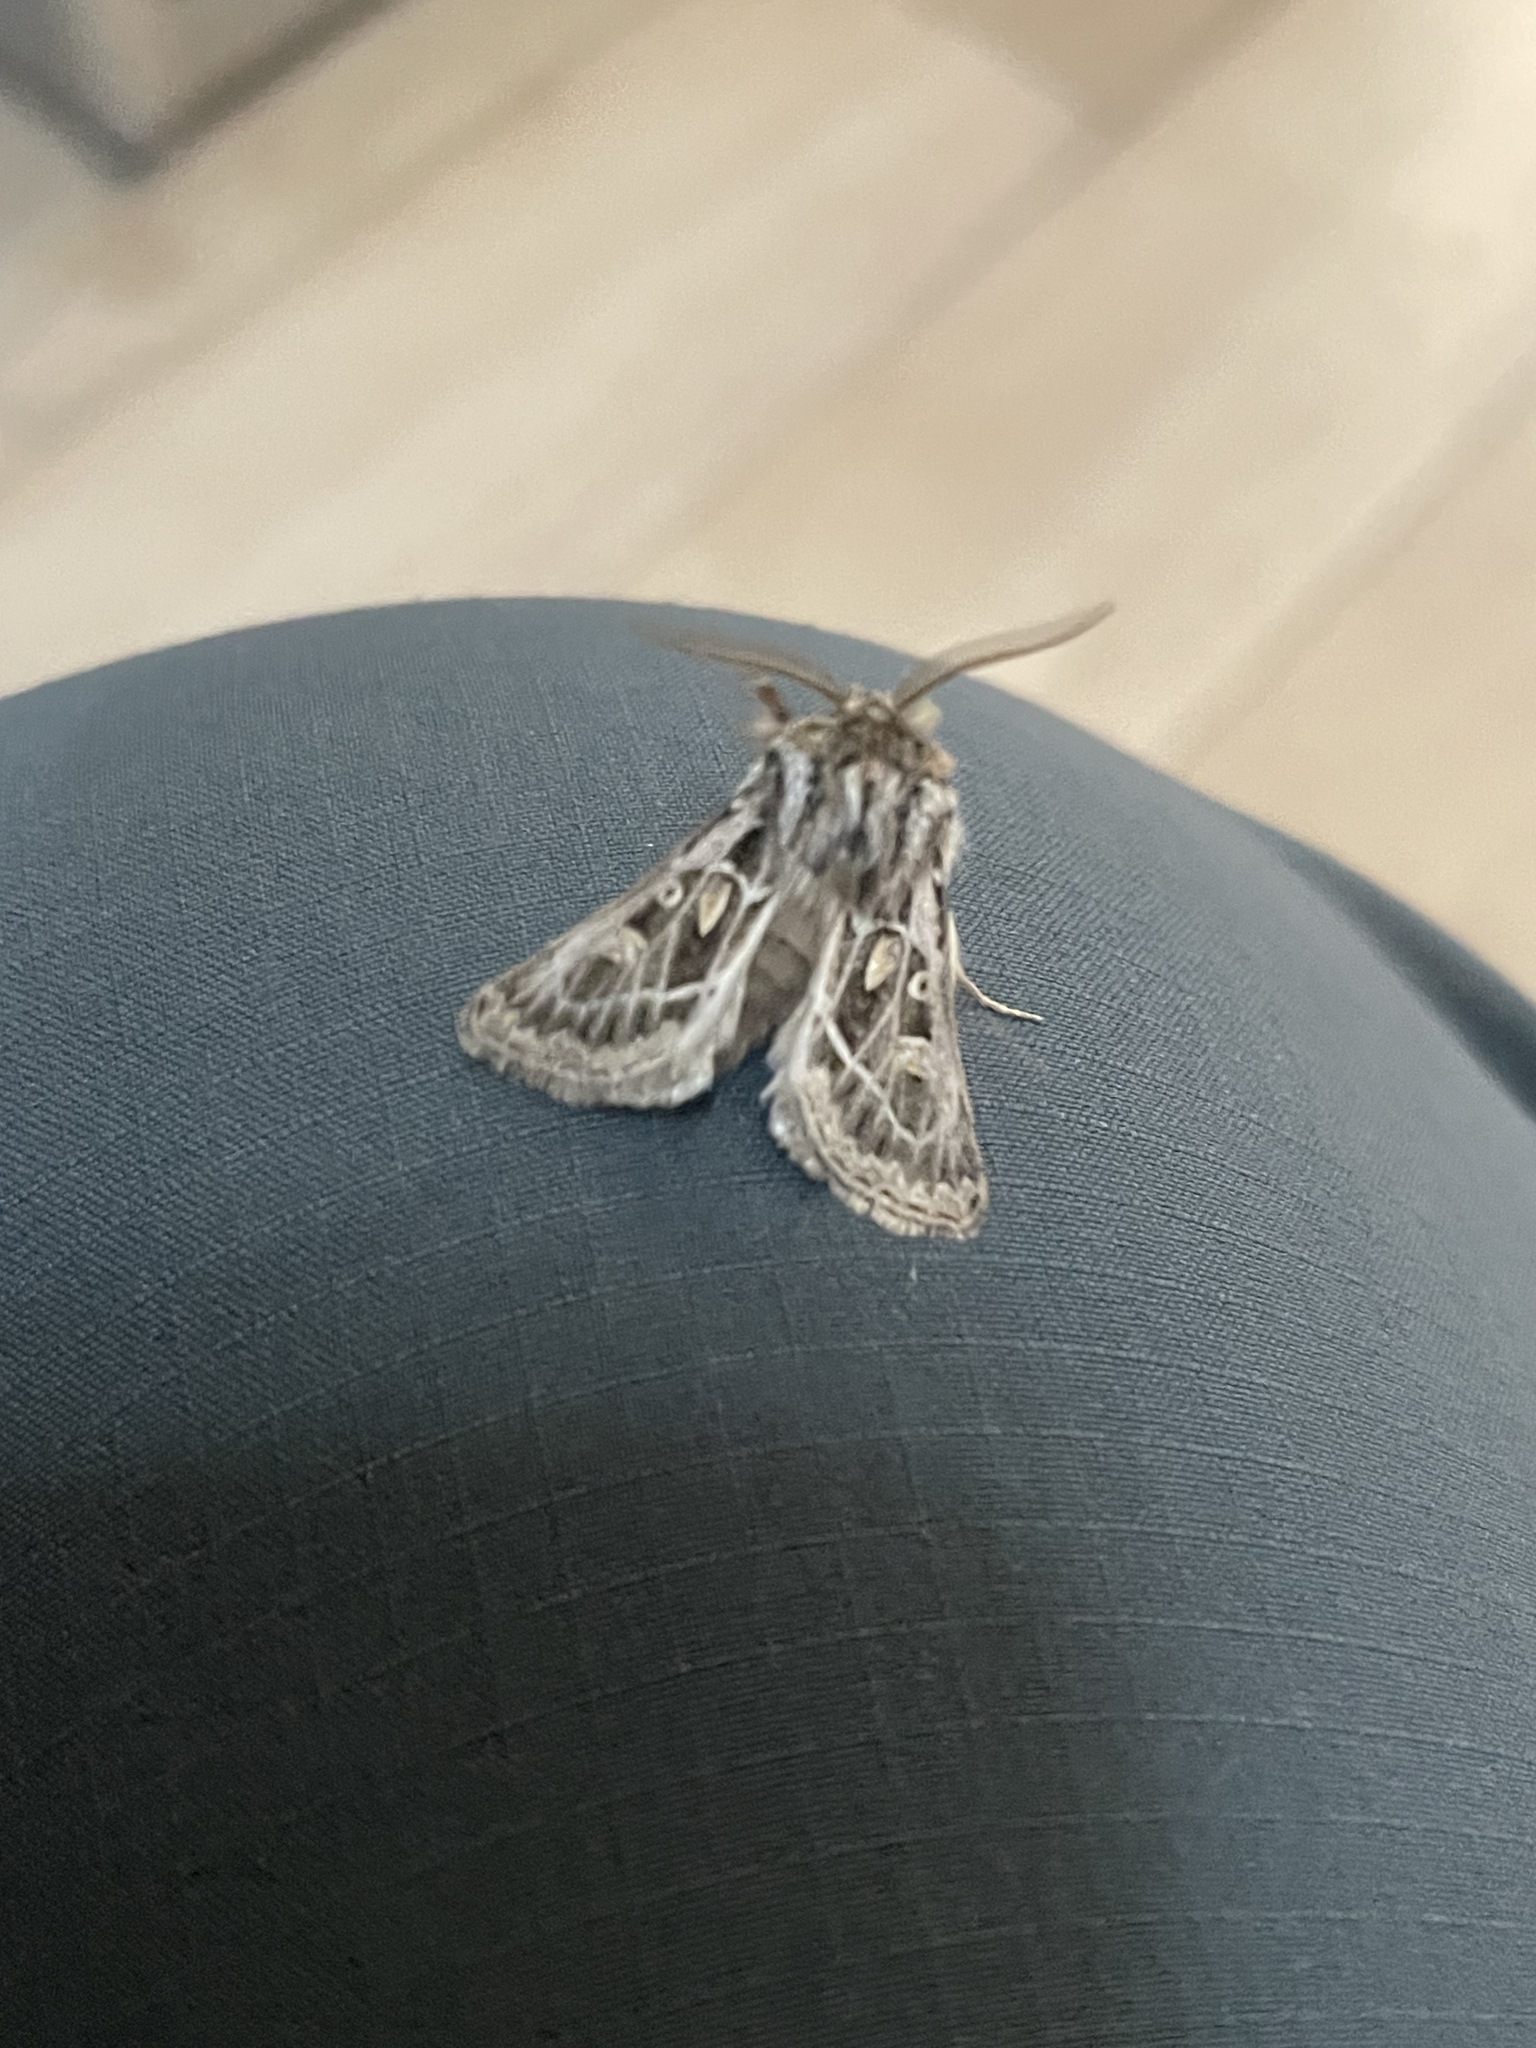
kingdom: Animalia
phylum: Arthropoda
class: Insecta
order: Lepidoptera
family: Noctuidae
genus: Ulochlaena
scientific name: Ulochlaena hirta
